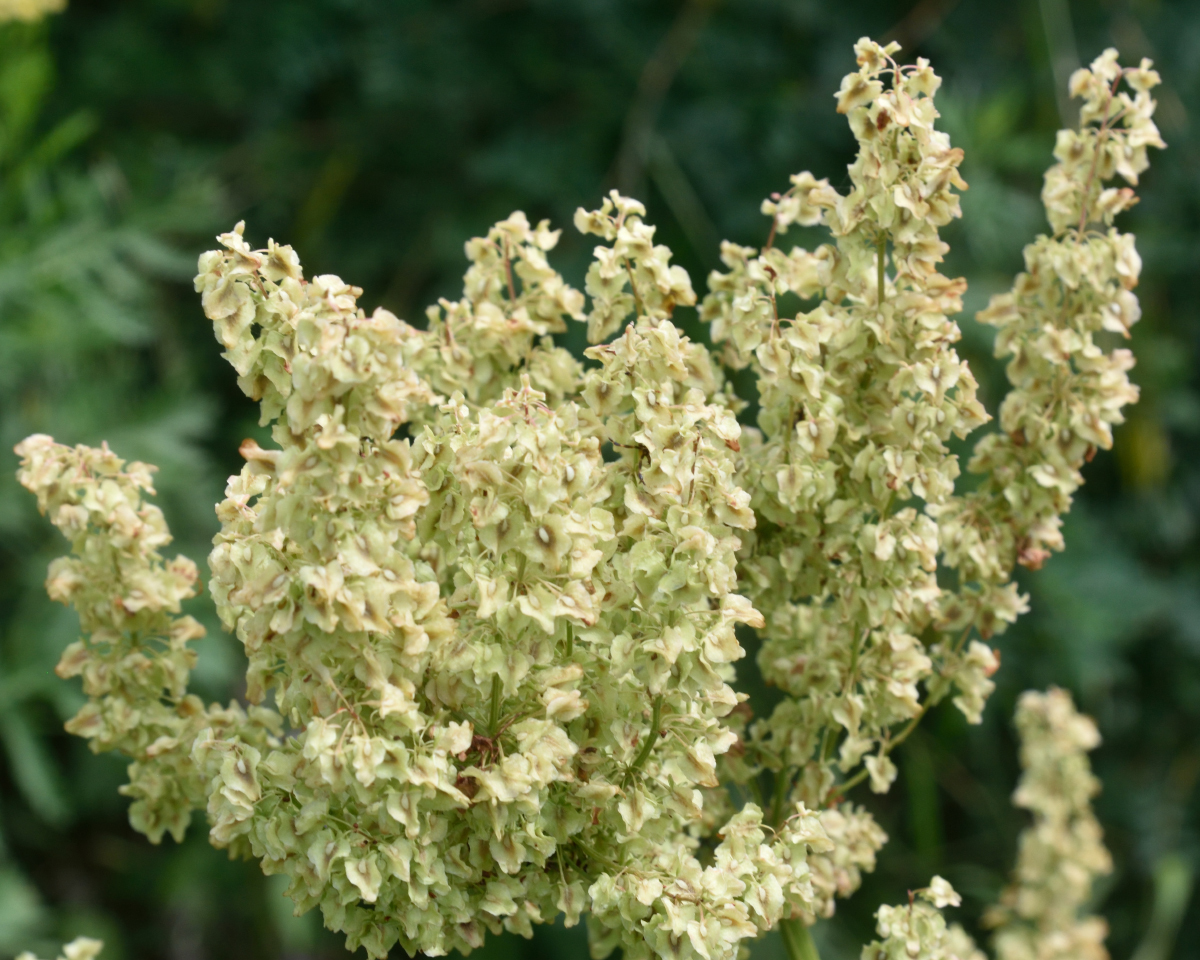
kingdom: Plantae
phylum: Tracheophyta
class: Magnoliopsida
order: Caryophyllales
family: Polygonaceae
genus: Rumex
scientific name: Rumex confertus
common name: Russian dock
